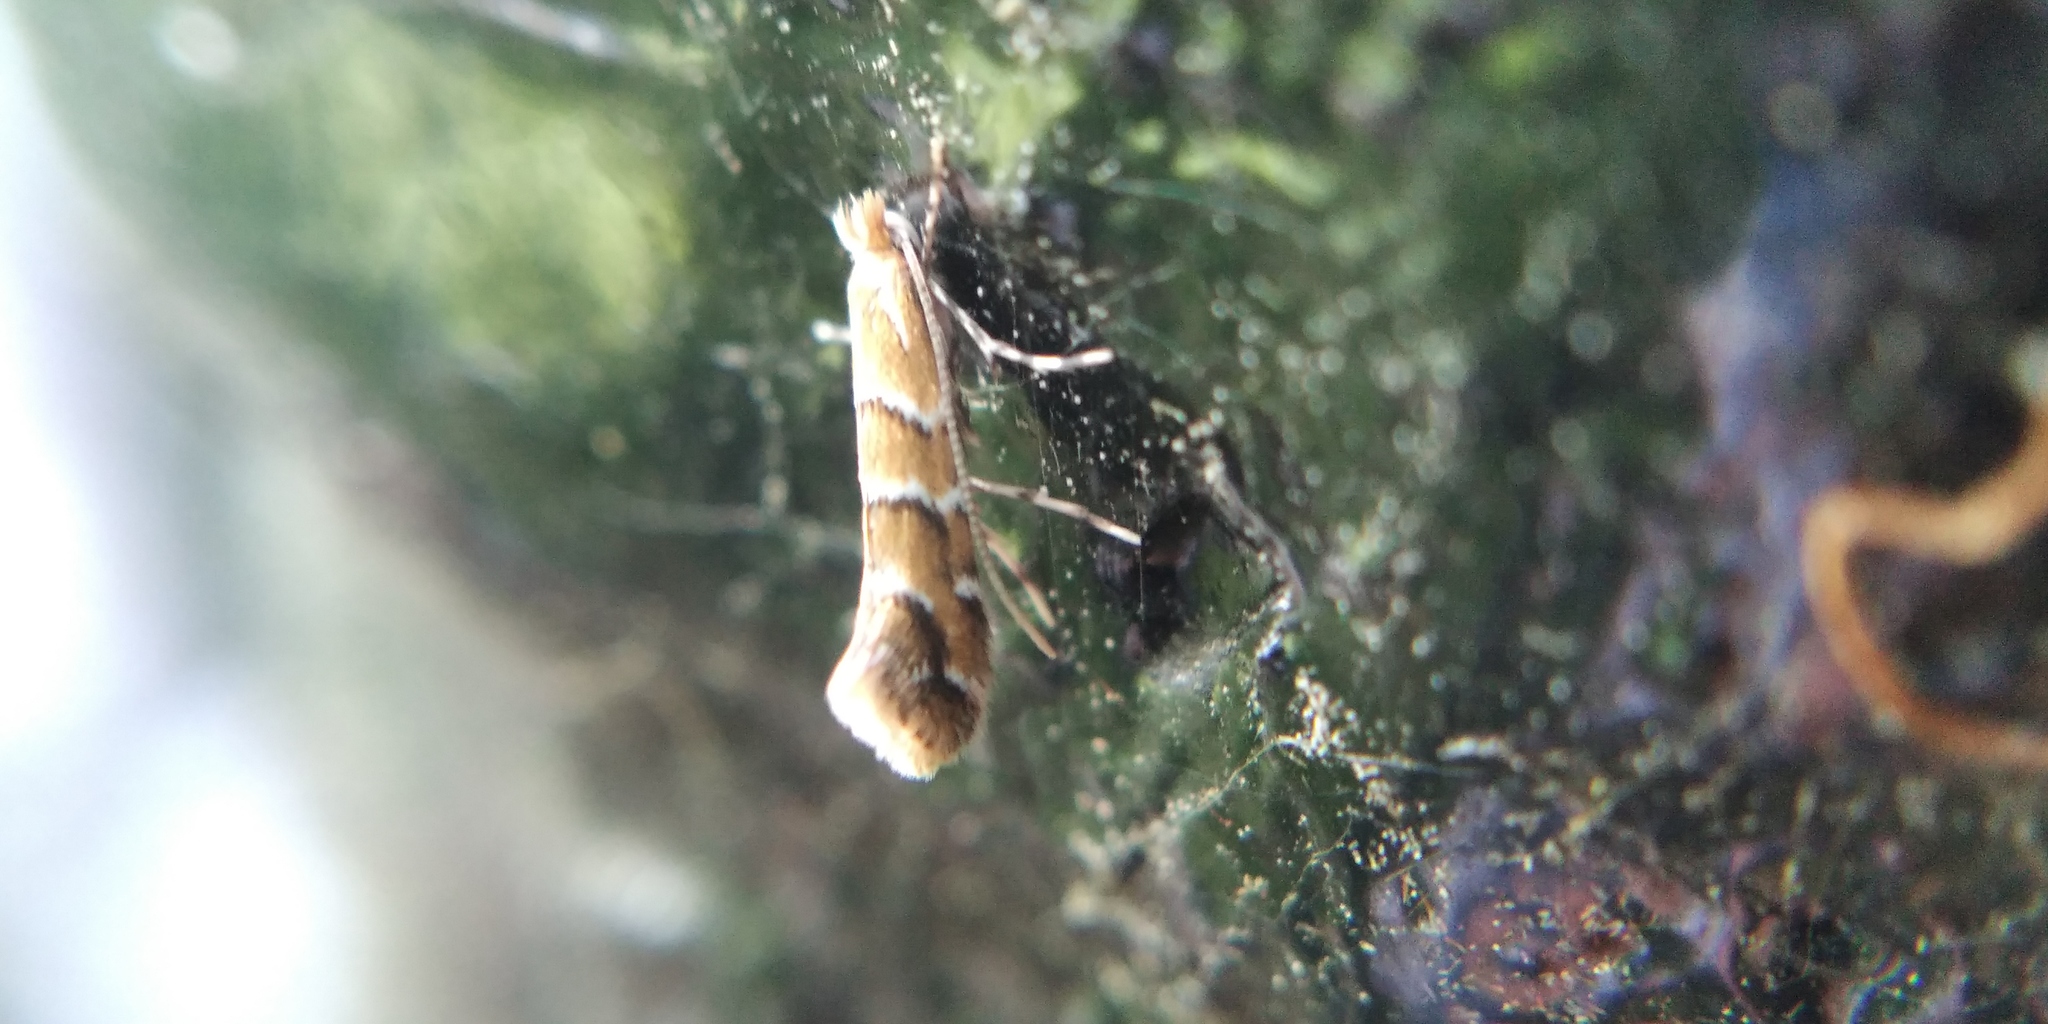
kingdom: Animalia
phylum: Arthropoda
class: Insecta
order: Lepidoptera
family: Gracillariidae
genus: Cameraria
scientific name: Cameraria ohridella
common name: Horse-chestnut leaf-miner
